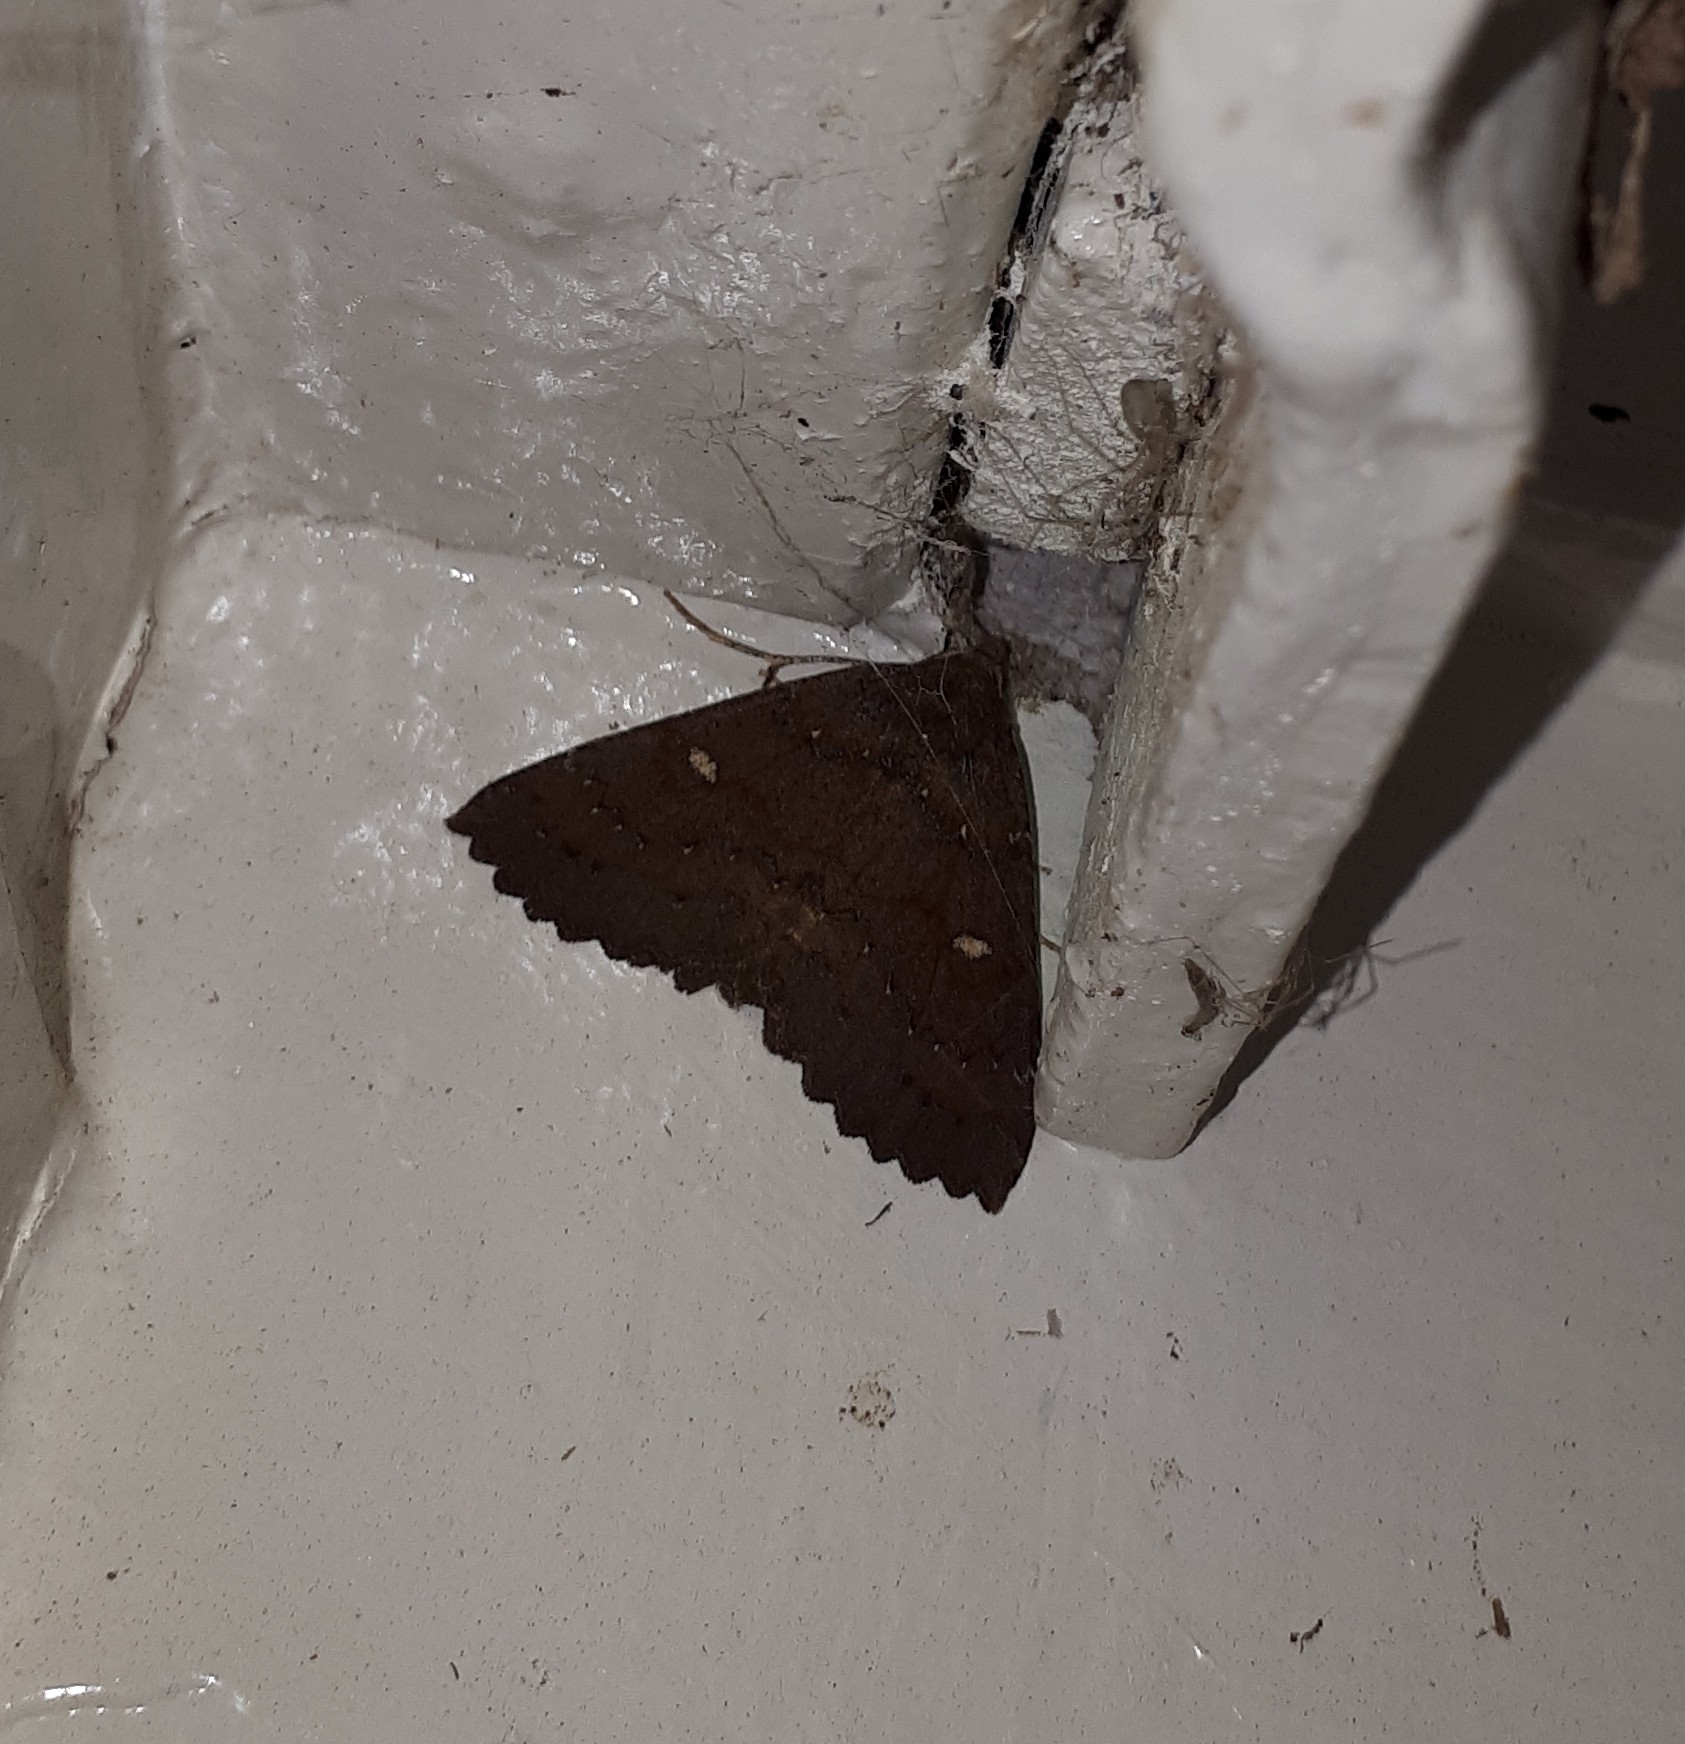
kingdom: Animalia
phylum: Arthropoda
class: Insecta
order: Lepidoptera
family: Geometridae
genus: Cleora
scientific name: Cleora scriptaria
